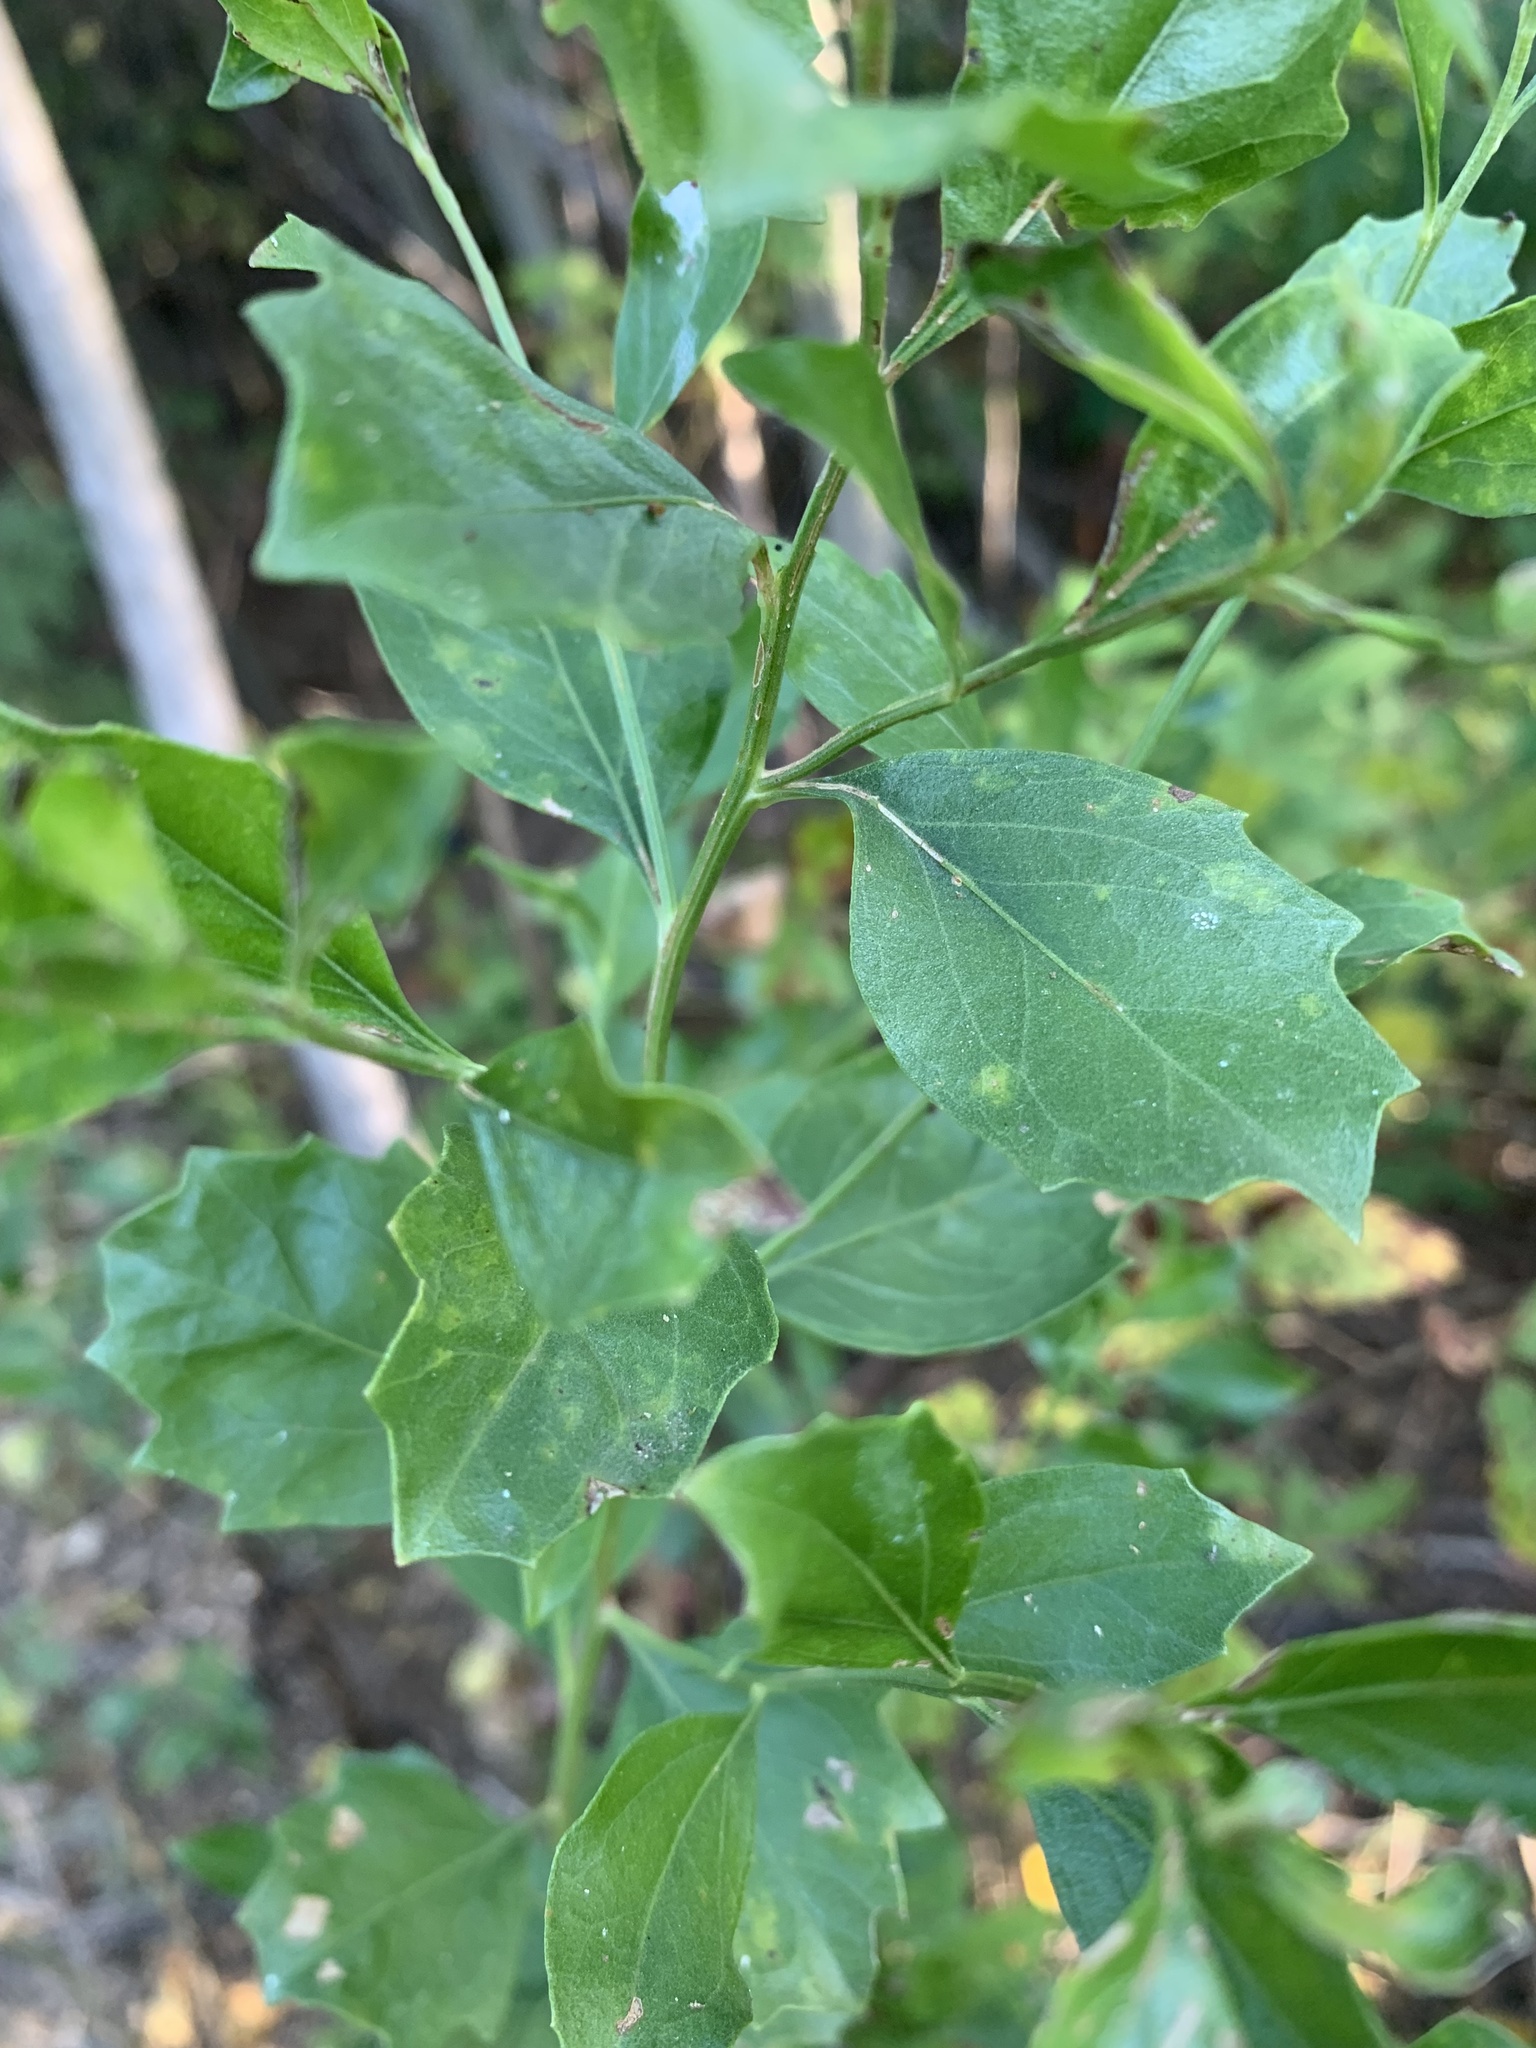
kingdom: Plantae
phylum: Tracheophyta
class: Magnoliopsida
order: Asterales
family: Asteraceae
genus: Baccharis
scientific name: Baccharis halimifolia
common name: Eastern baccharis
